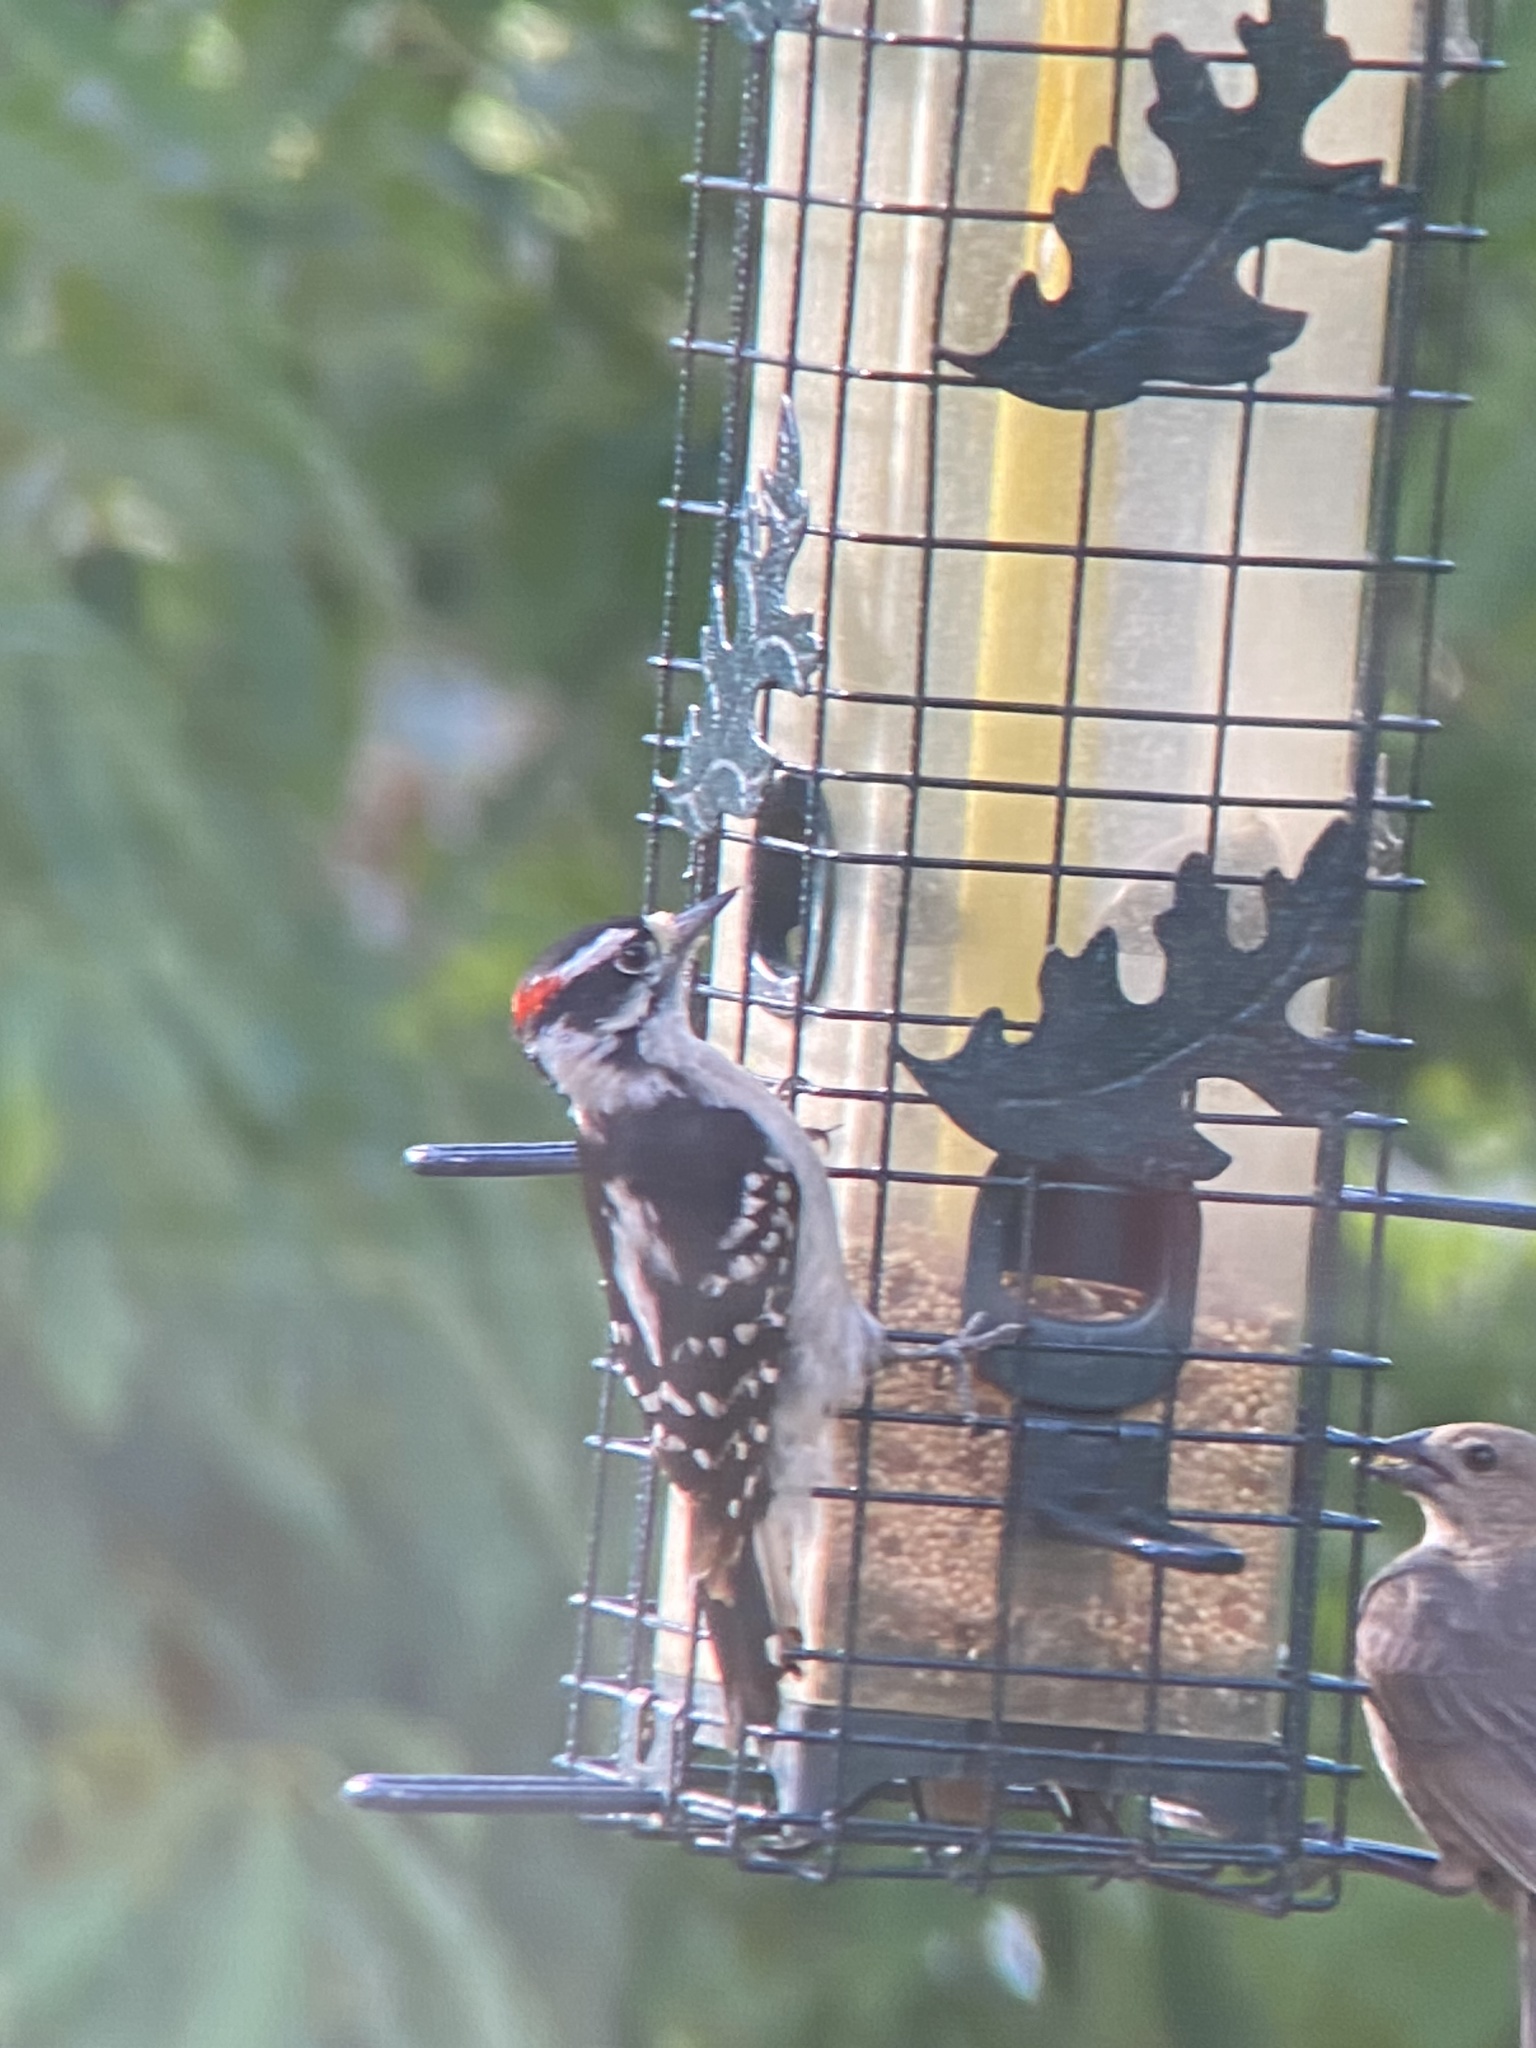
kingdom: Animalia
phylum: Chordata
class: Aves
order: Piciformes
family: Picidae
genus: Dryobates
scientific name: Dryobates pubescens
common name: Downy woodpecker
